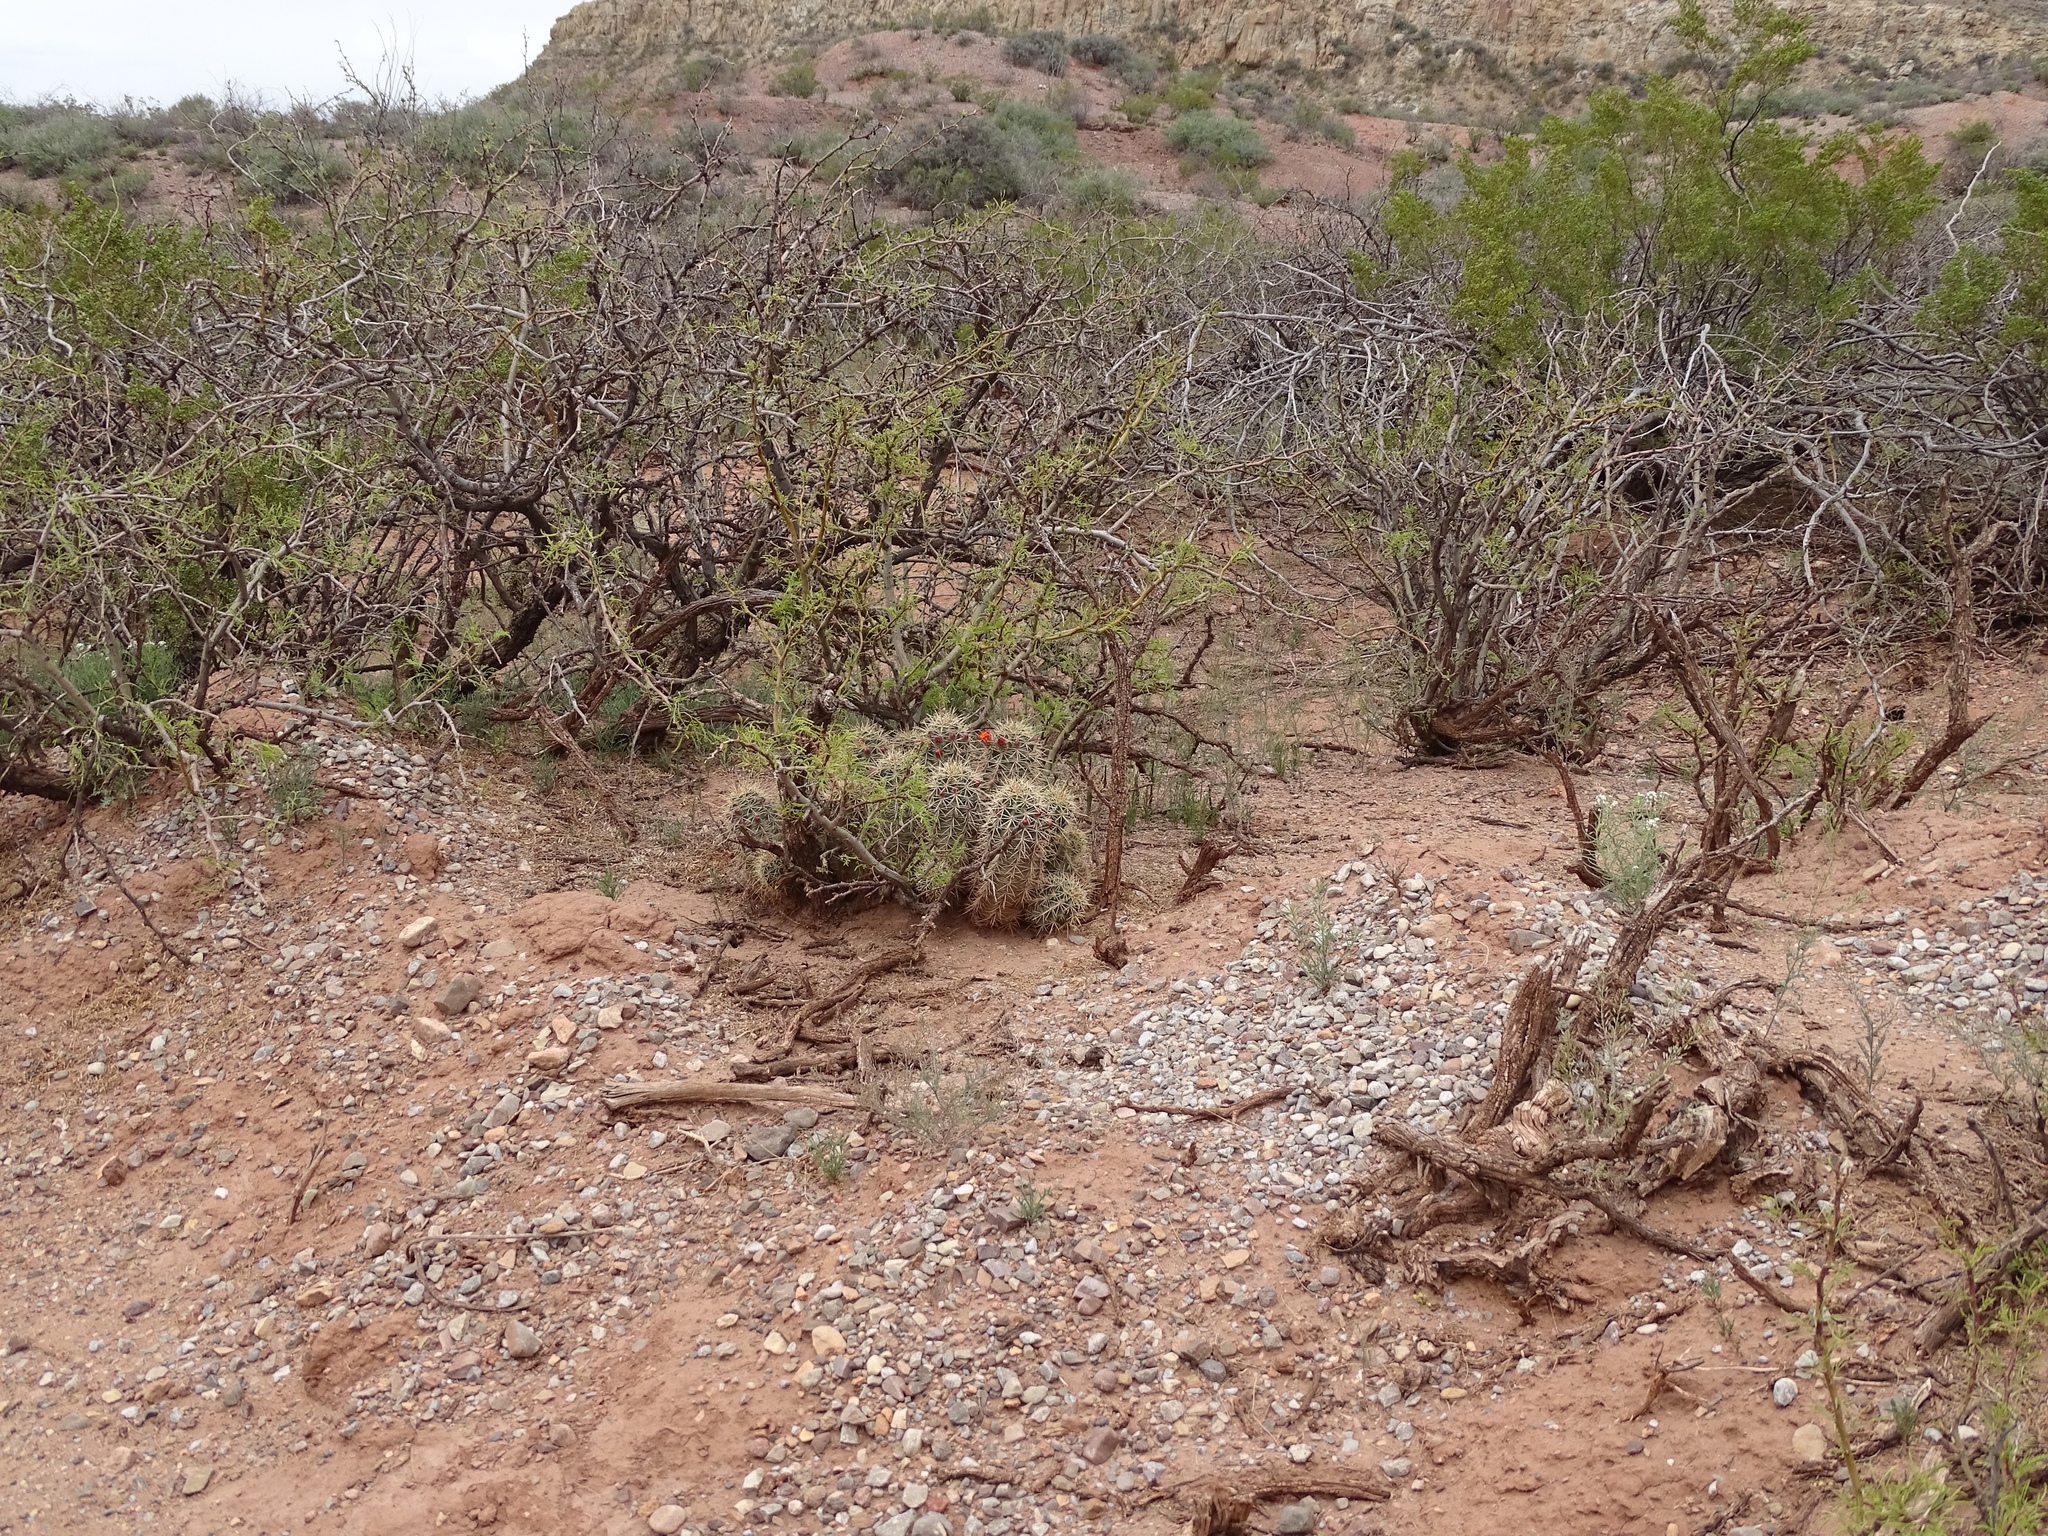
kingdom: Plantae
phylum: Tracheophyta
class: Magnoliopsida
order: Caryophyllales
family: Cactaceae
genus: Echinocereus
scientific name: Echinocereus coccineus
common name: Scarlet hedgehog cactus
